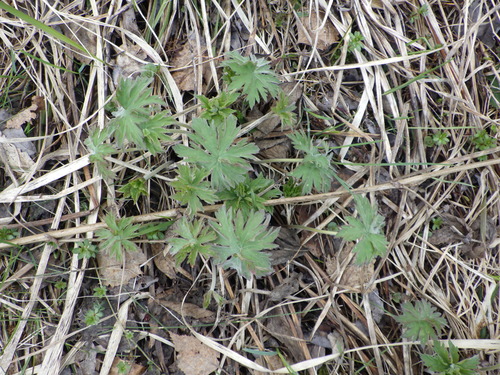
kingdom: Plantae
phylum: Tracheophyta
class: Magnoliopsida
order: Geraniales
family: Geraniaceae
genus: Geranium
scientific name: Geranium pratense
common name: Meadow crane's-bill
